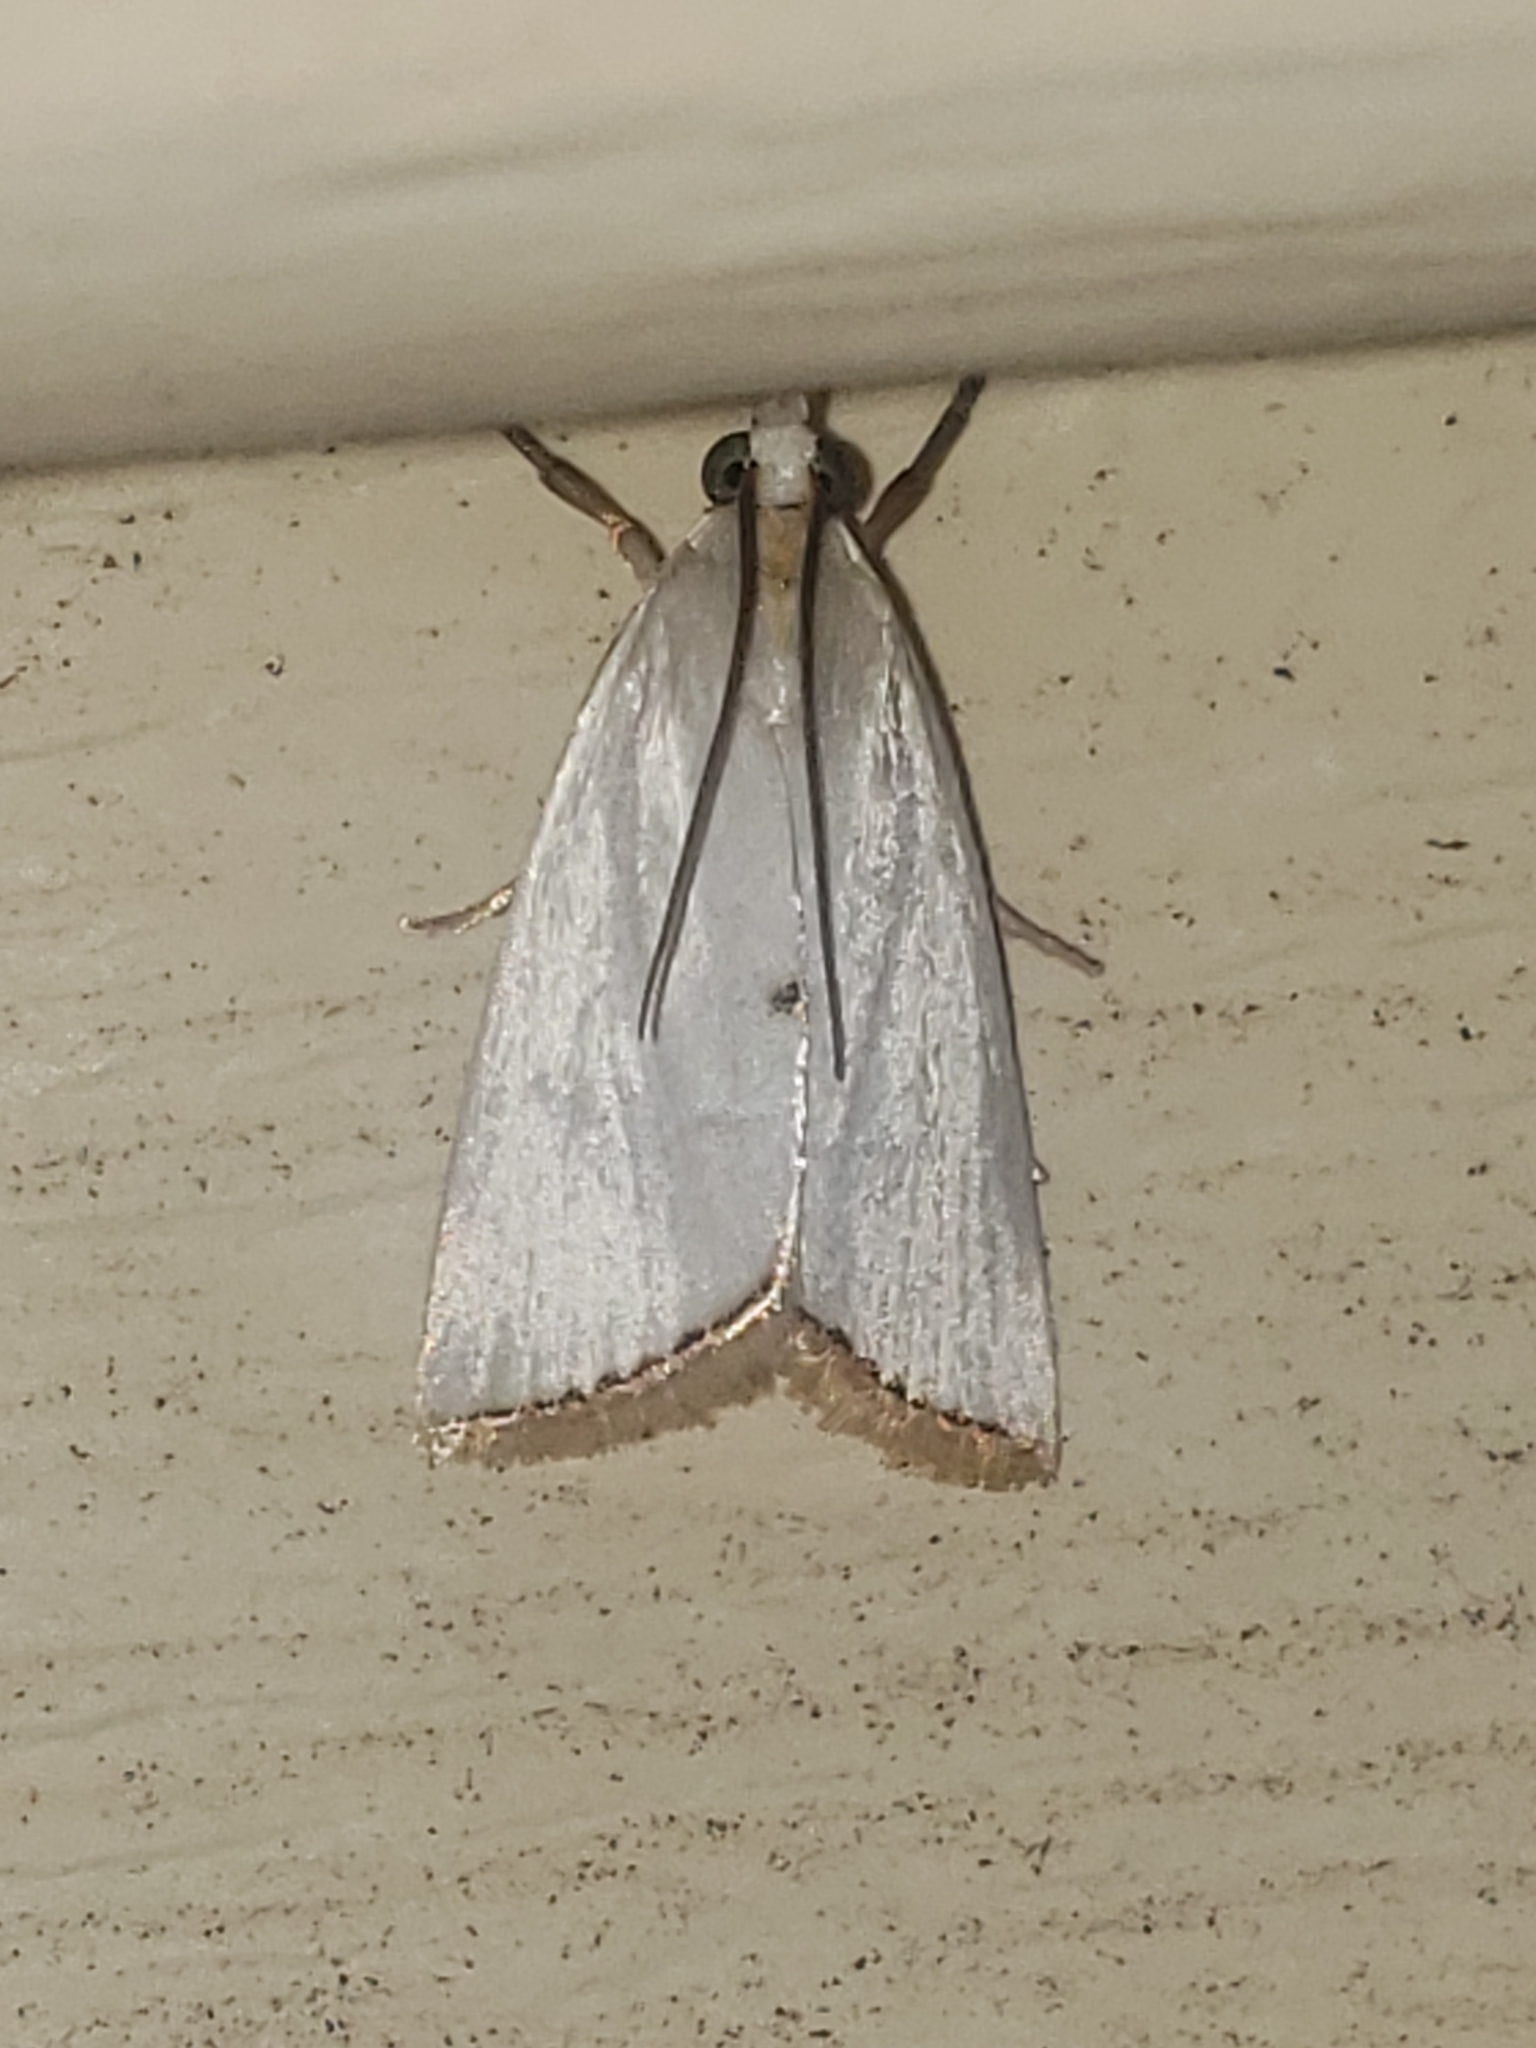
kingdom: Animalia
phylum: Arthropoda
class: Insecta
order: Lepidoptera
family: Crambidae
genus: Argyria
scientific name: Argyria nivalis
